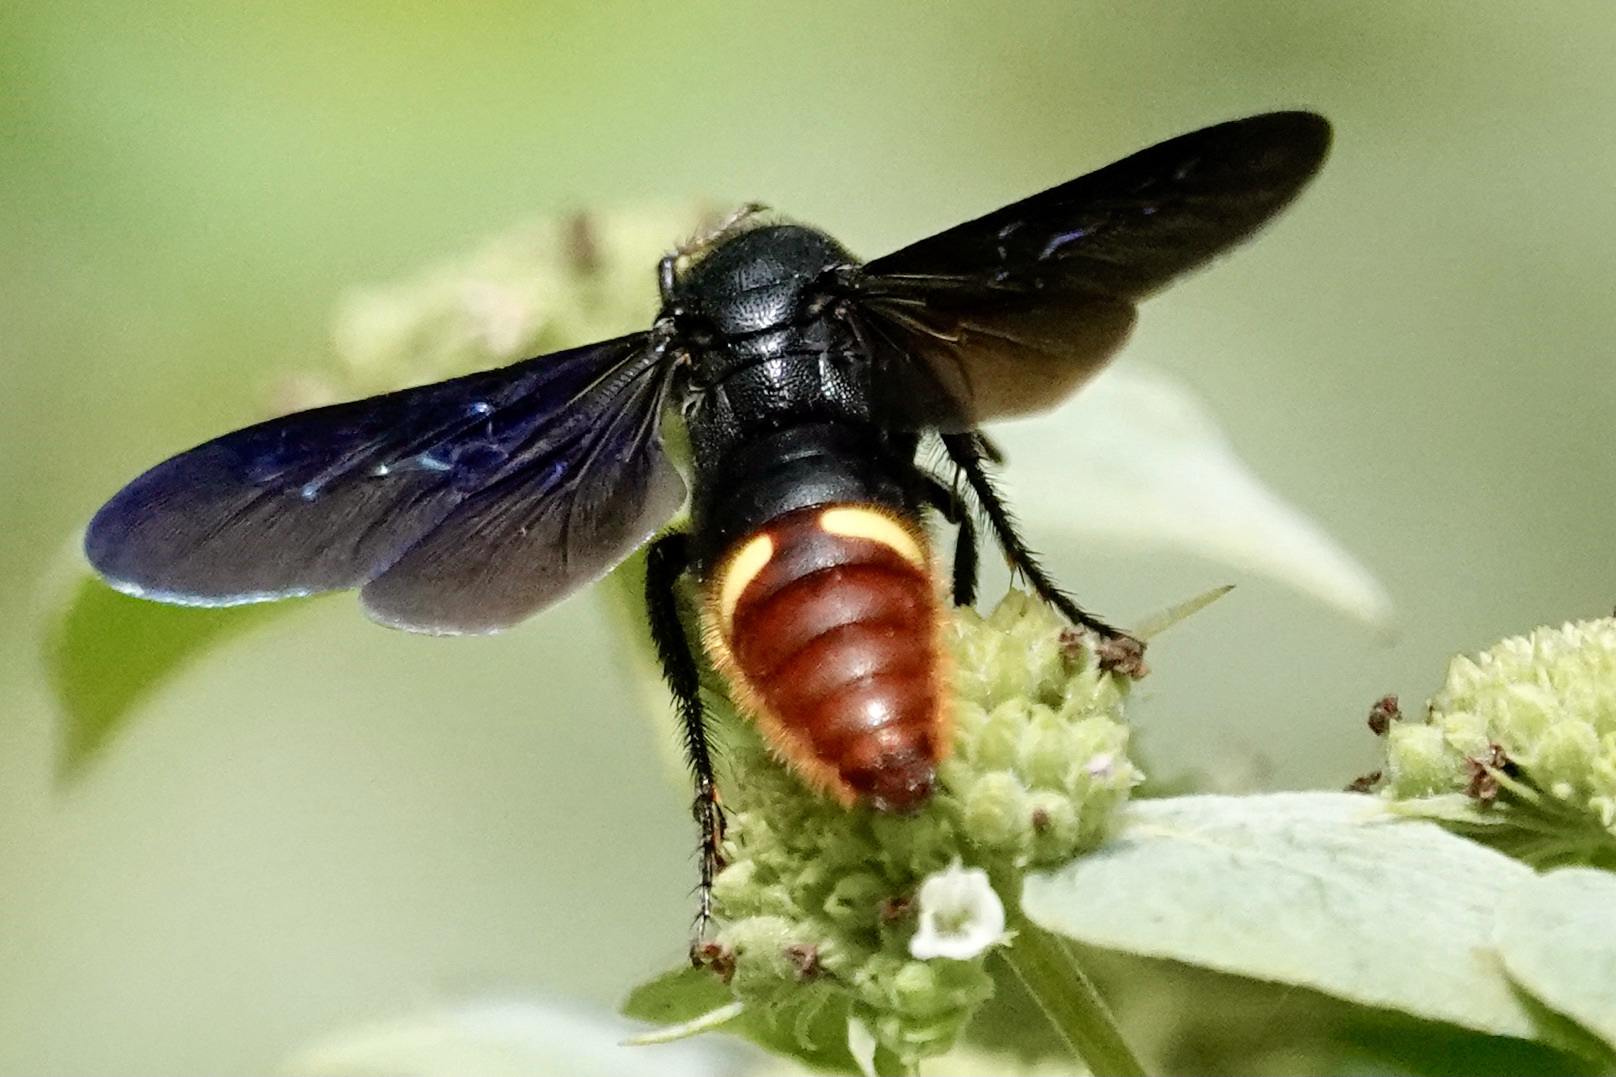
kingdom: Animalia
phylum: Arthropoda
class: Insecta
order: Hymenoptera
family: Scoliidae
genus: Scolia
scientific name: Scolia dubia
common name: Blue-winged scoliid wasp
